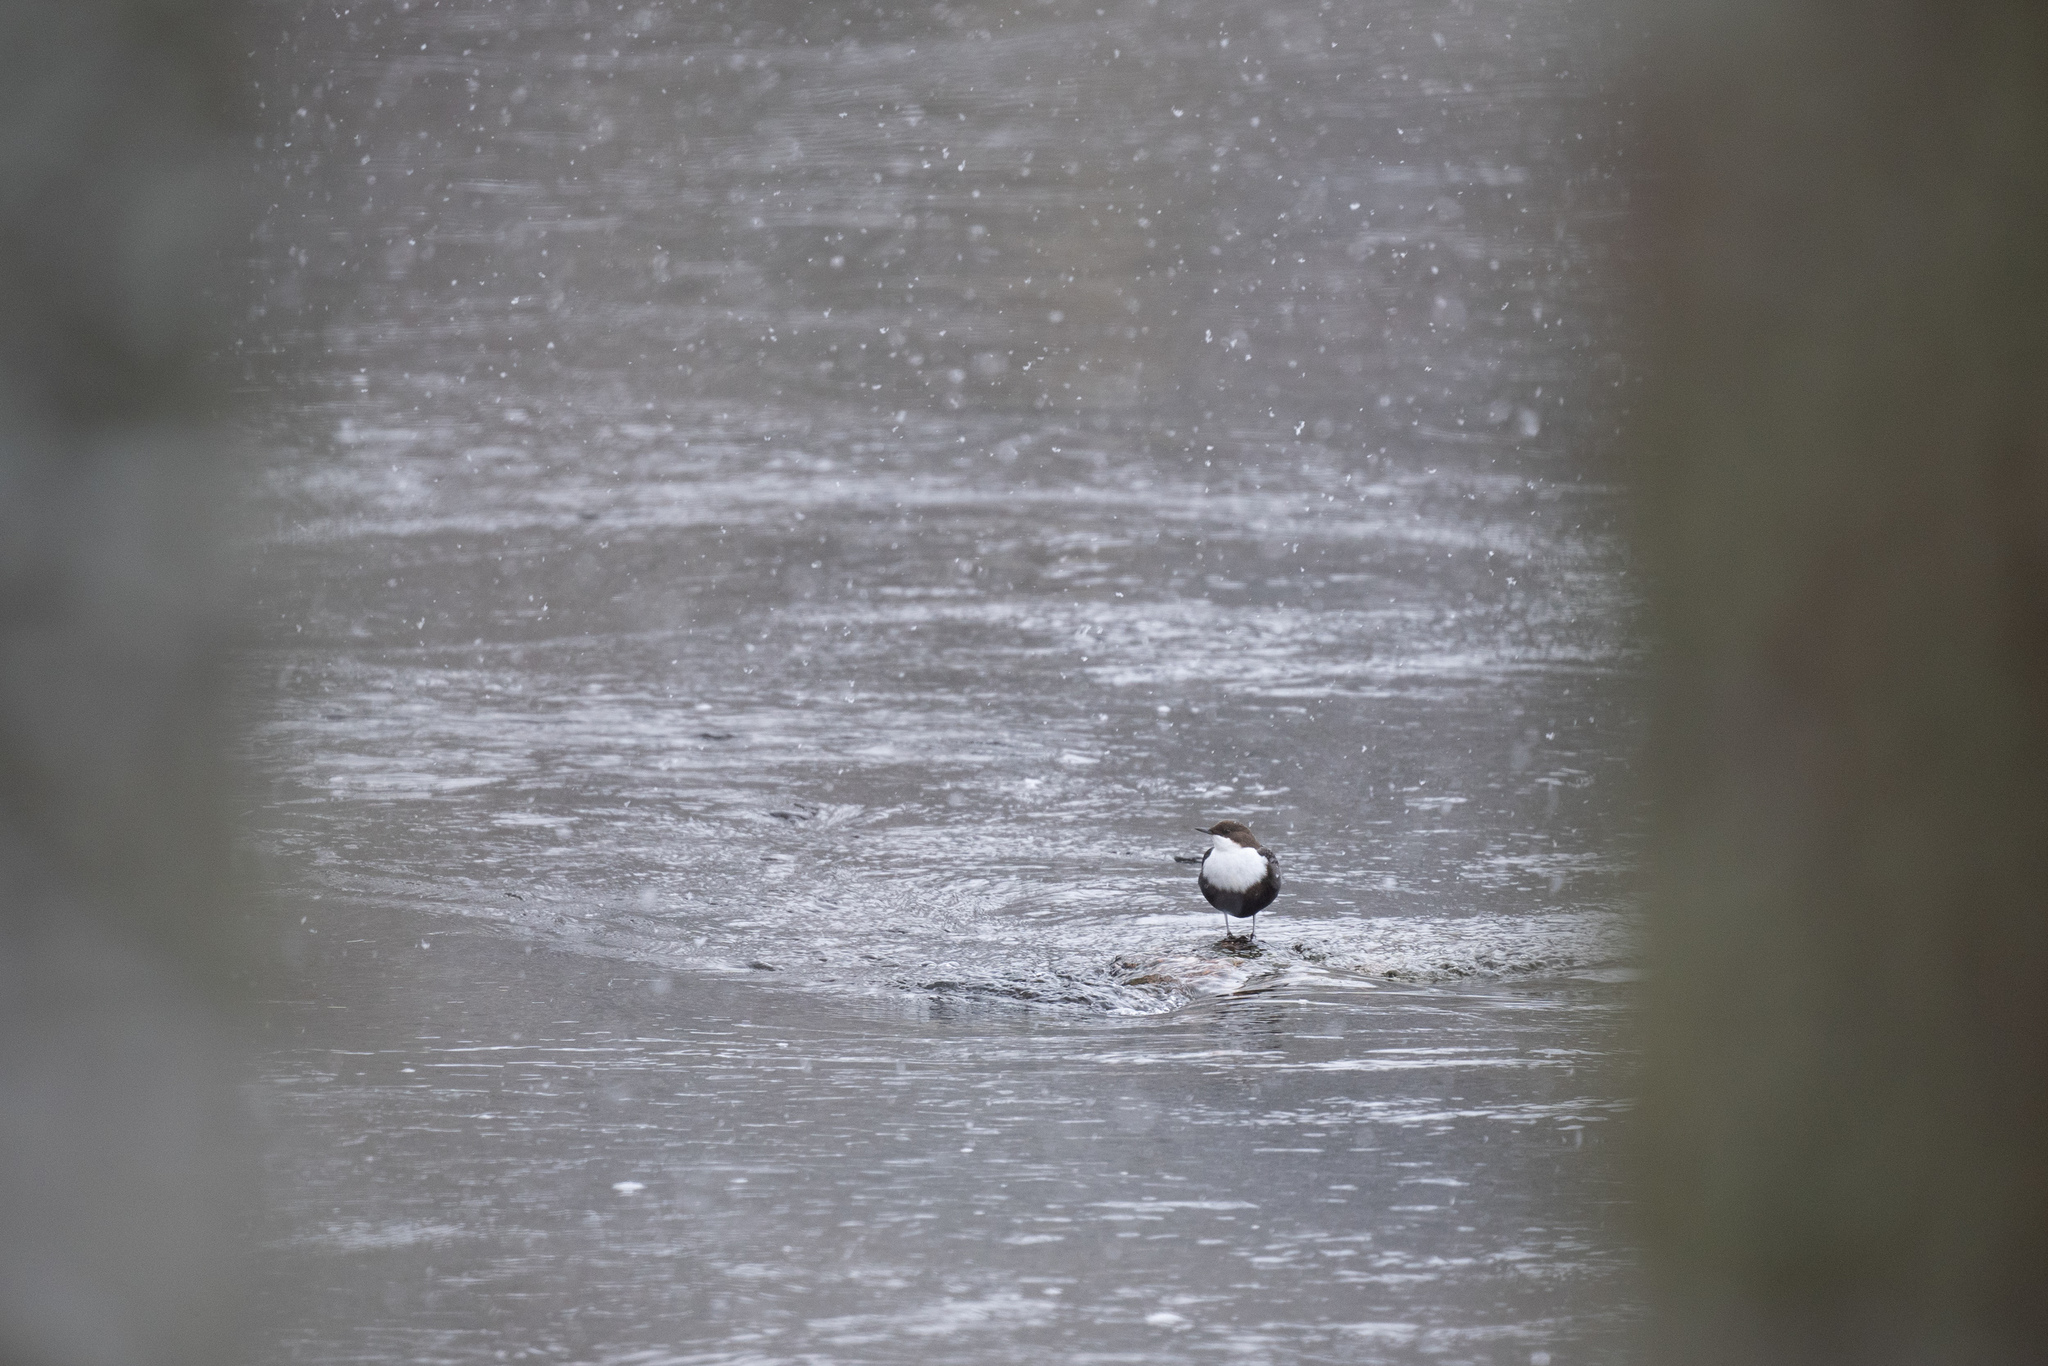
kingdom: Animalia
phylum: Chordata
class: Aves
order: Passeriformes
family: Cinclidae
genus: Cinclus
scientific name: Cinclus cinclus
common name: White-throated dipper
